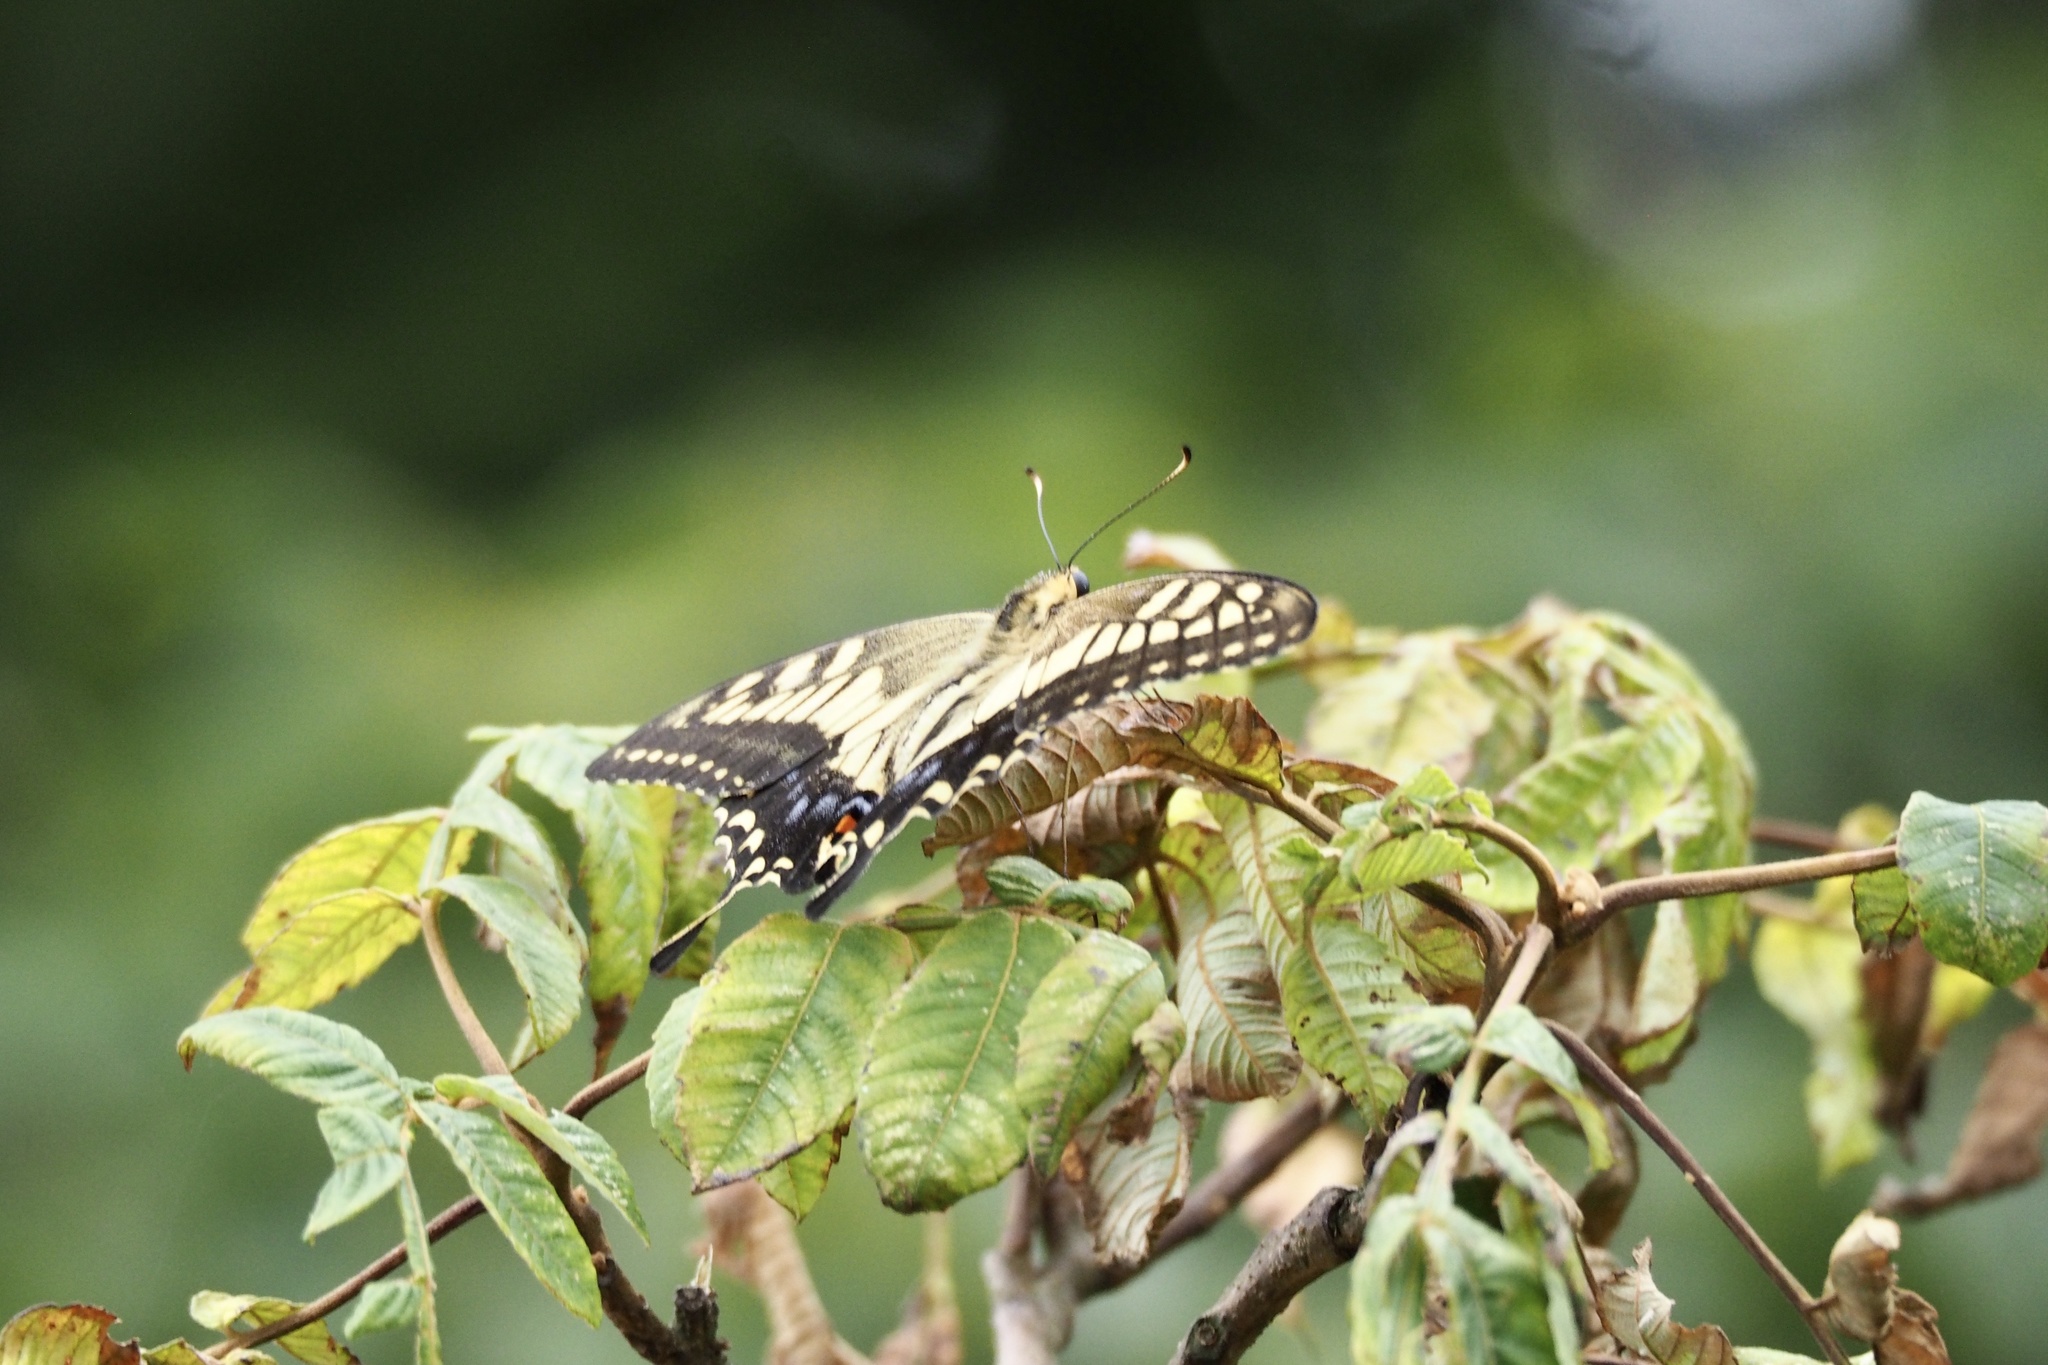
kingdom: Animalia
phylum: Arthropoda
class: Insecta
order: Lepidoptera
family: Papilionidae
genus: Papilio
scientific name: Papilio machaon
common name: Swallowtail
